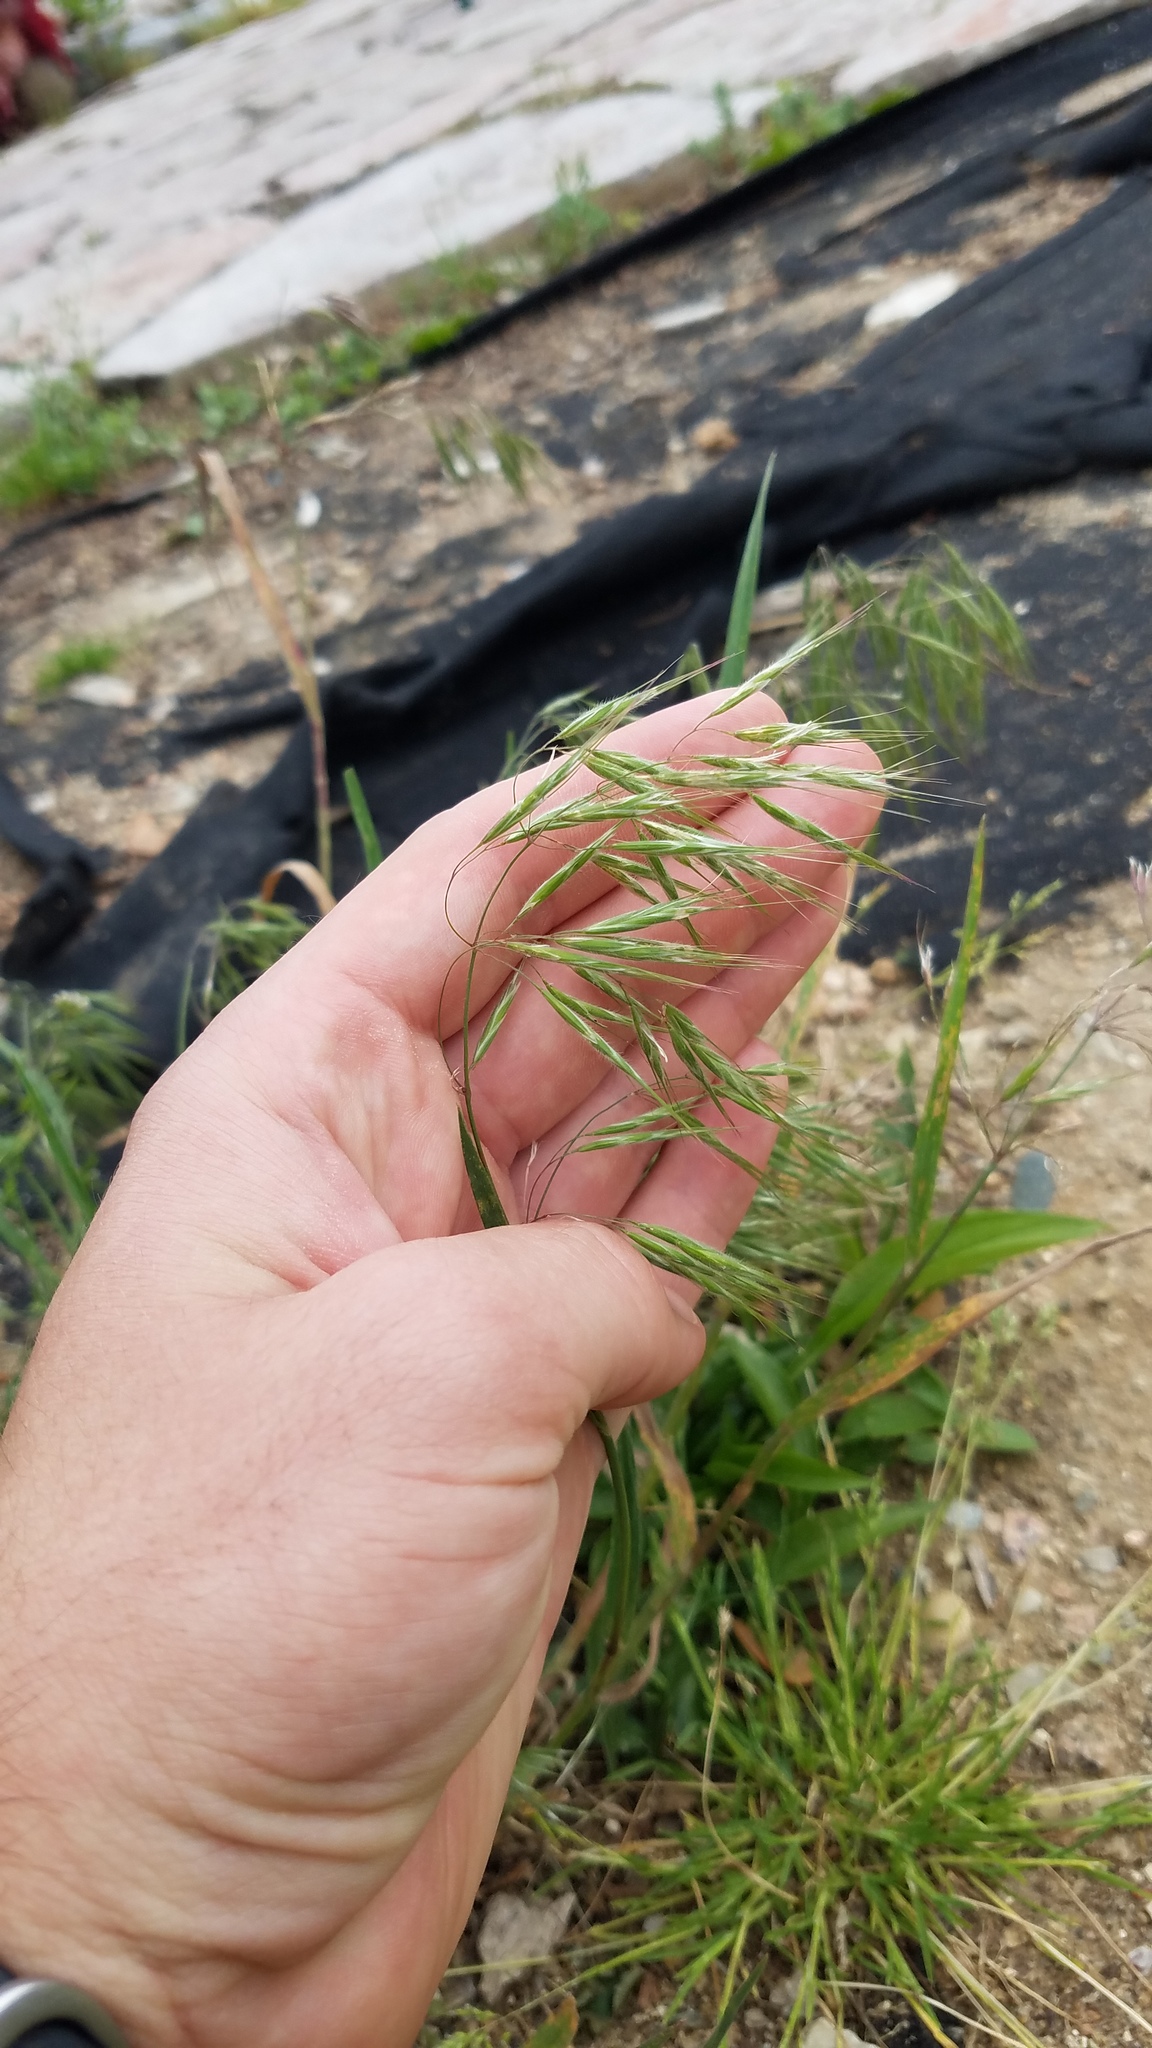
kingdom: Plantae
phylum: Tracheophyta
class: Liliopsida
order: Poales
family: Poaceae
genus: Bromus
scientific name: Bromus tectorum
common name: Cheatgrass
